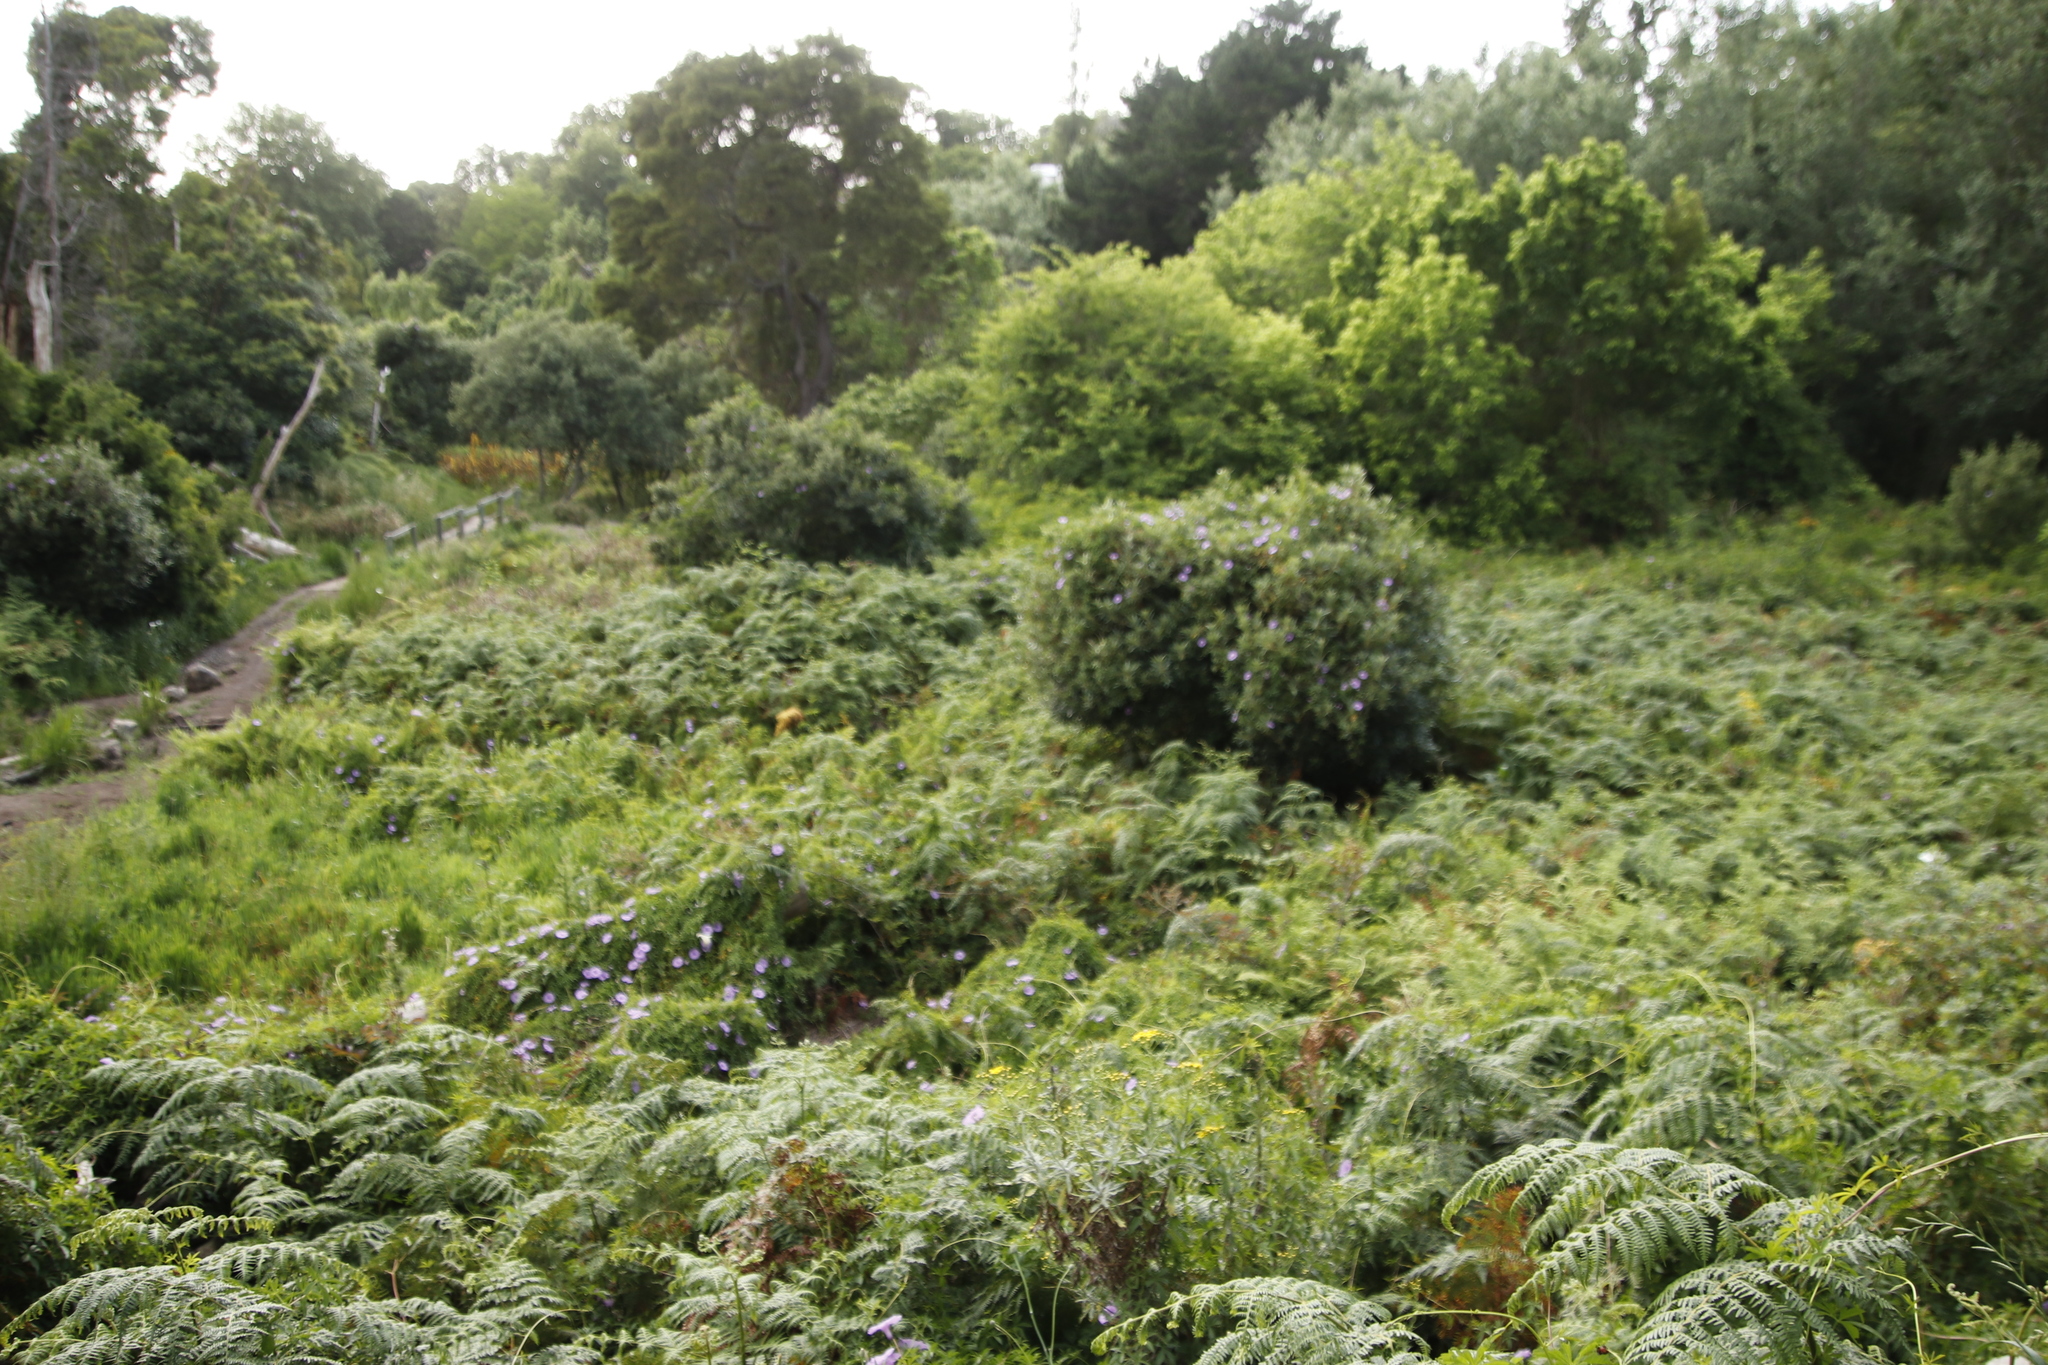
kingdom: Plantae
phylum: Tracheophyta
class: Magnoliopsida
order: Solanales
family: Convolvulaceae
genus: Ipomoea
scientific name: Ipomoea cairica
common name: Mile a minute vine
